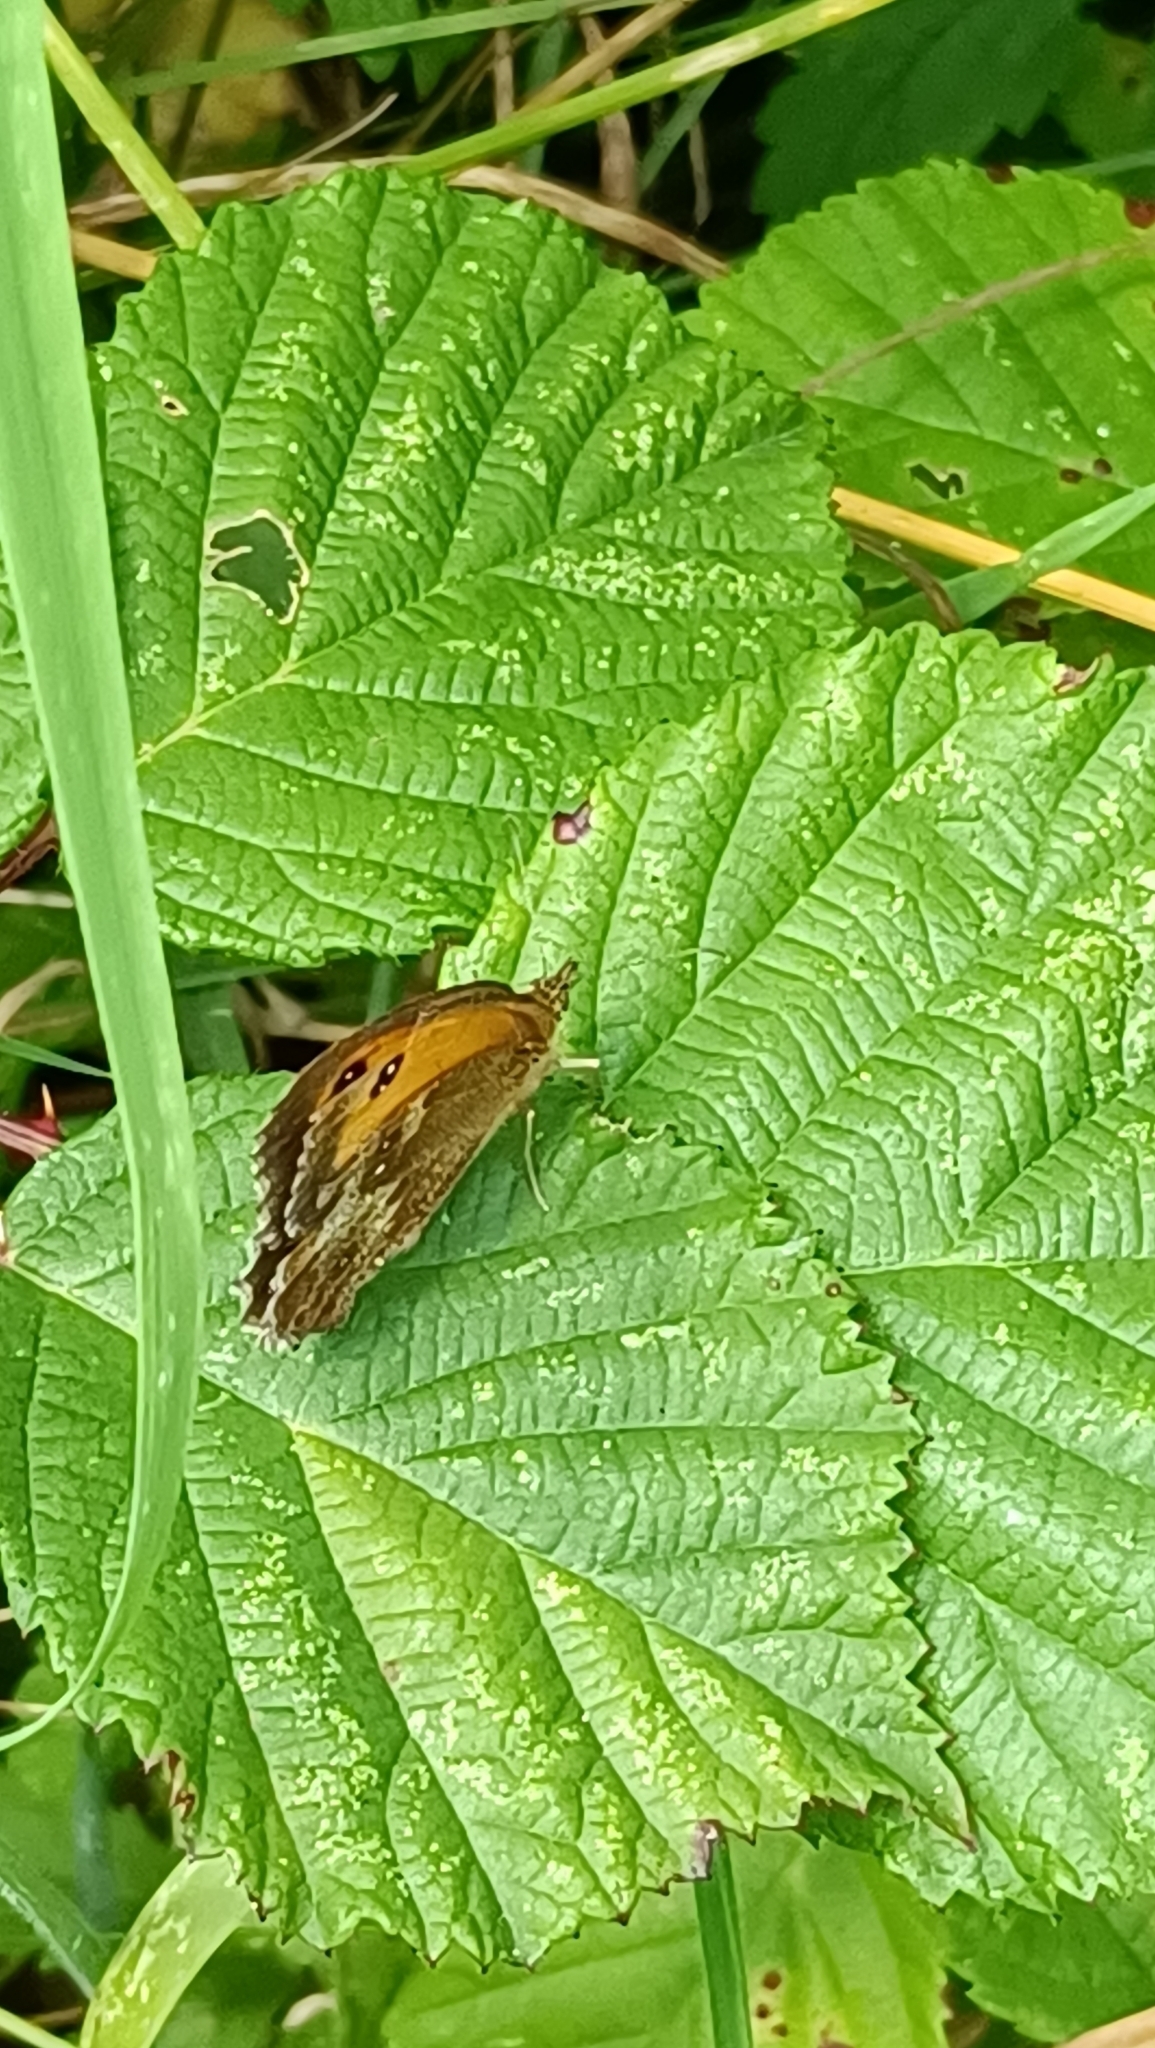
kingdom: Animalia
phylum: Arthropoda
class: Insecta
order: Lepidoptera
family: Nymphalidae
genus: Pyronia
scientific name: Pyronia tithonus
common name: Gatekeeper
